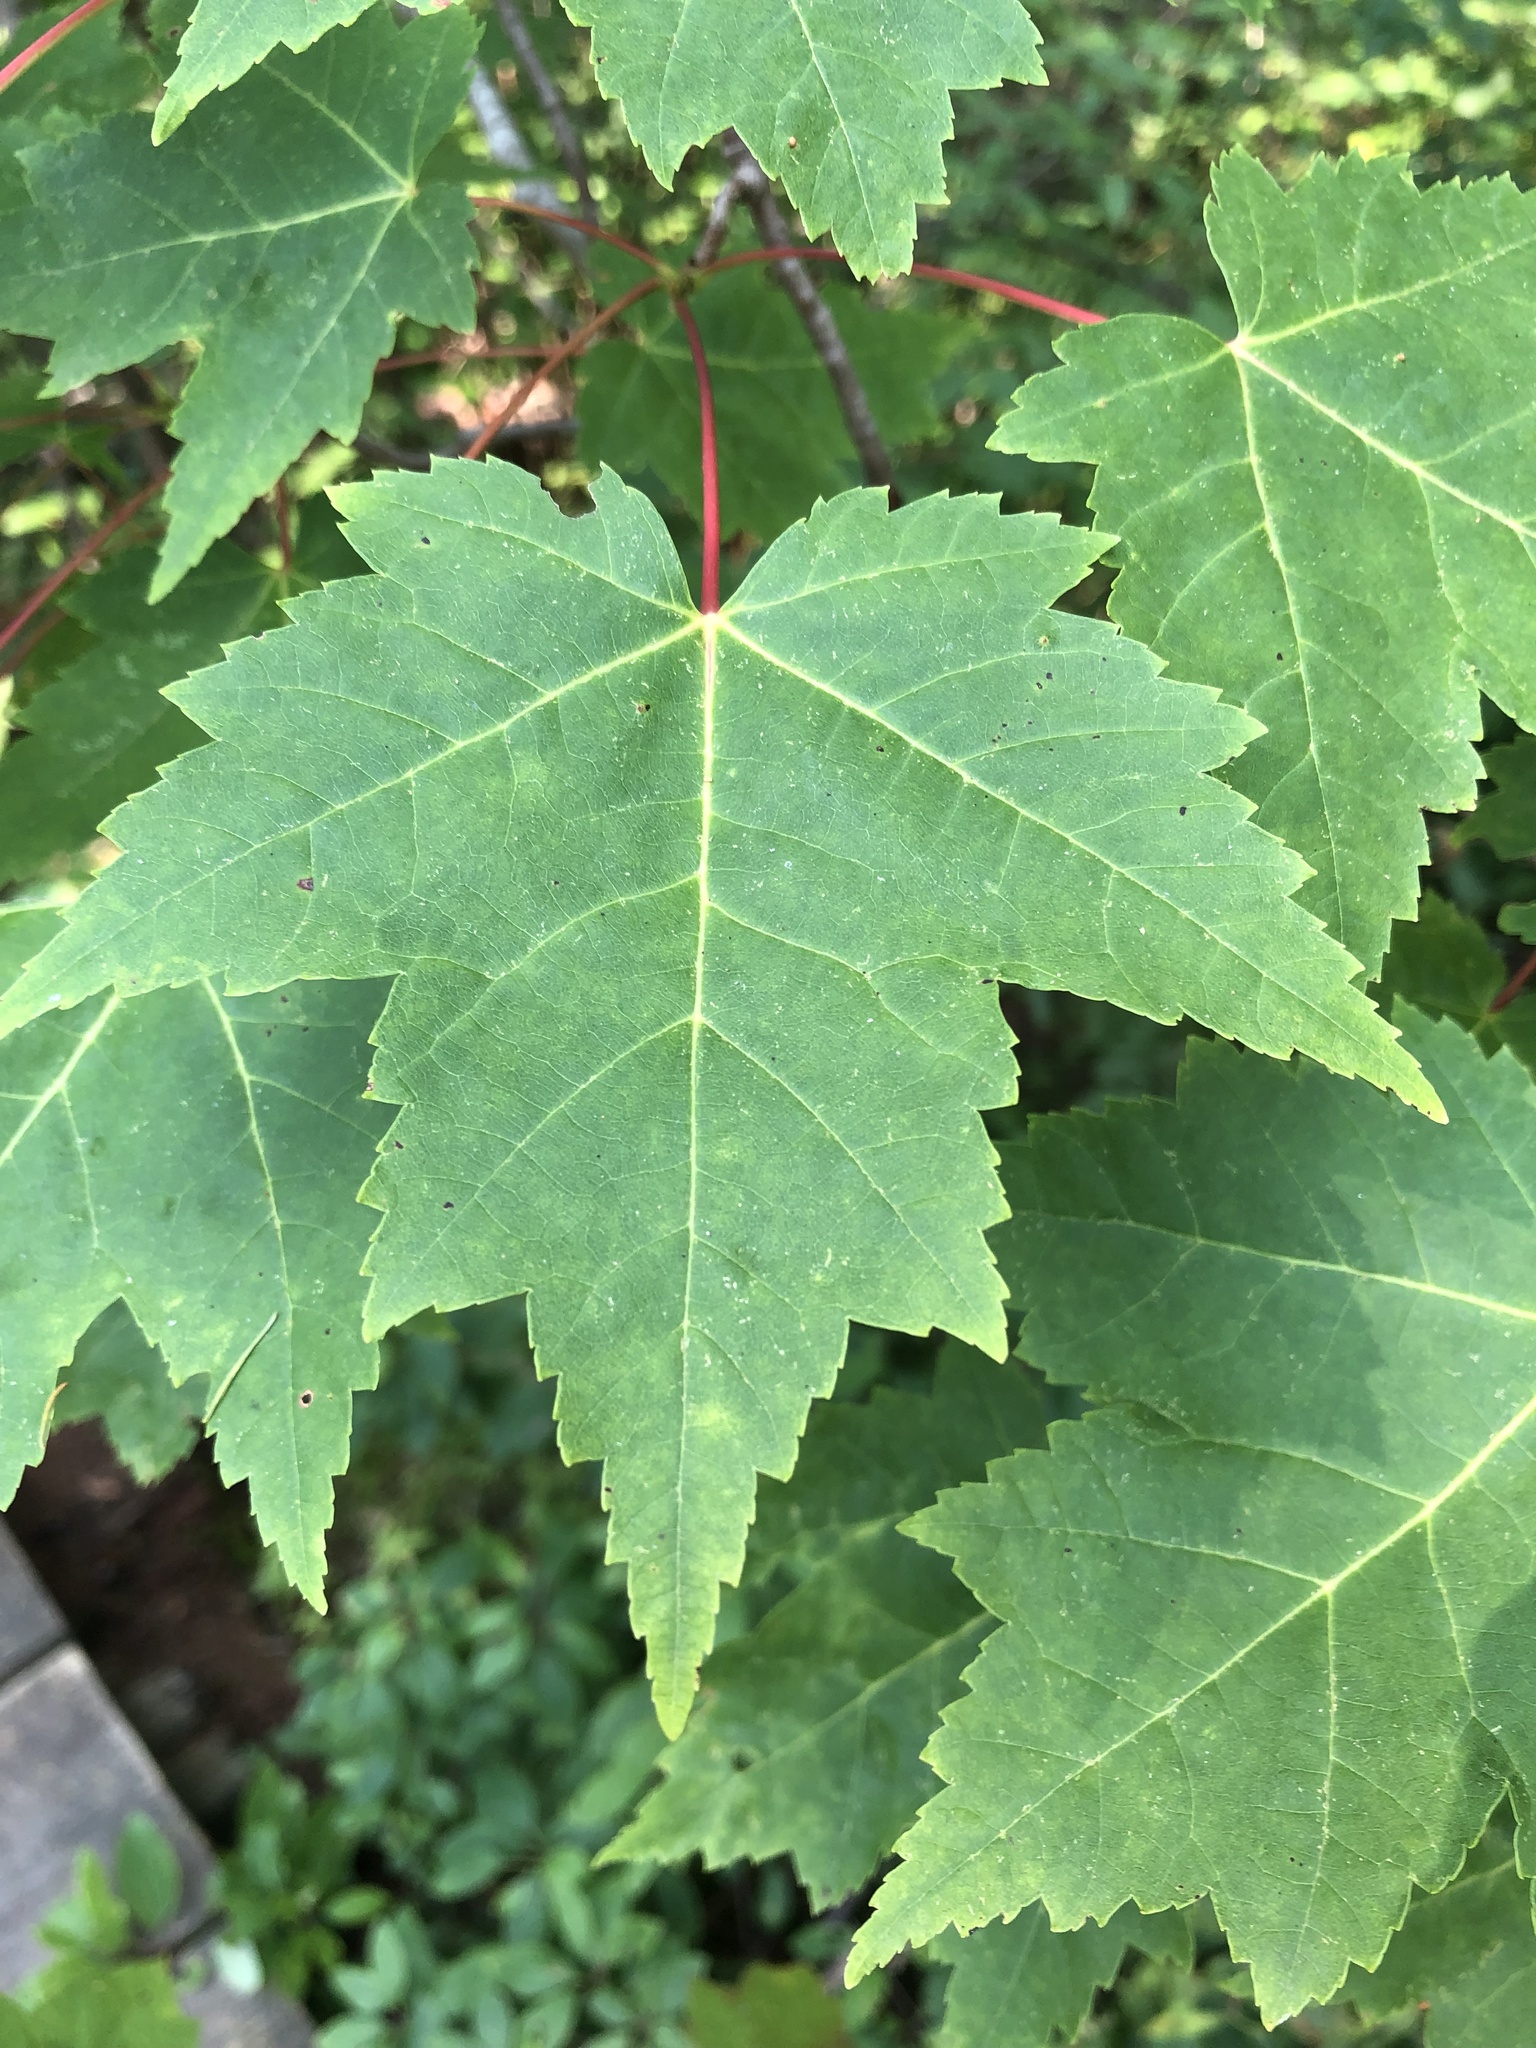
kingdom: Plantae
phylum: Tracheophyta
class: Magnoliopsida
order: Sapindales
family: Sapindaceae
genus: Acer
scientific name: Acer rubrum
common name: Red maple
